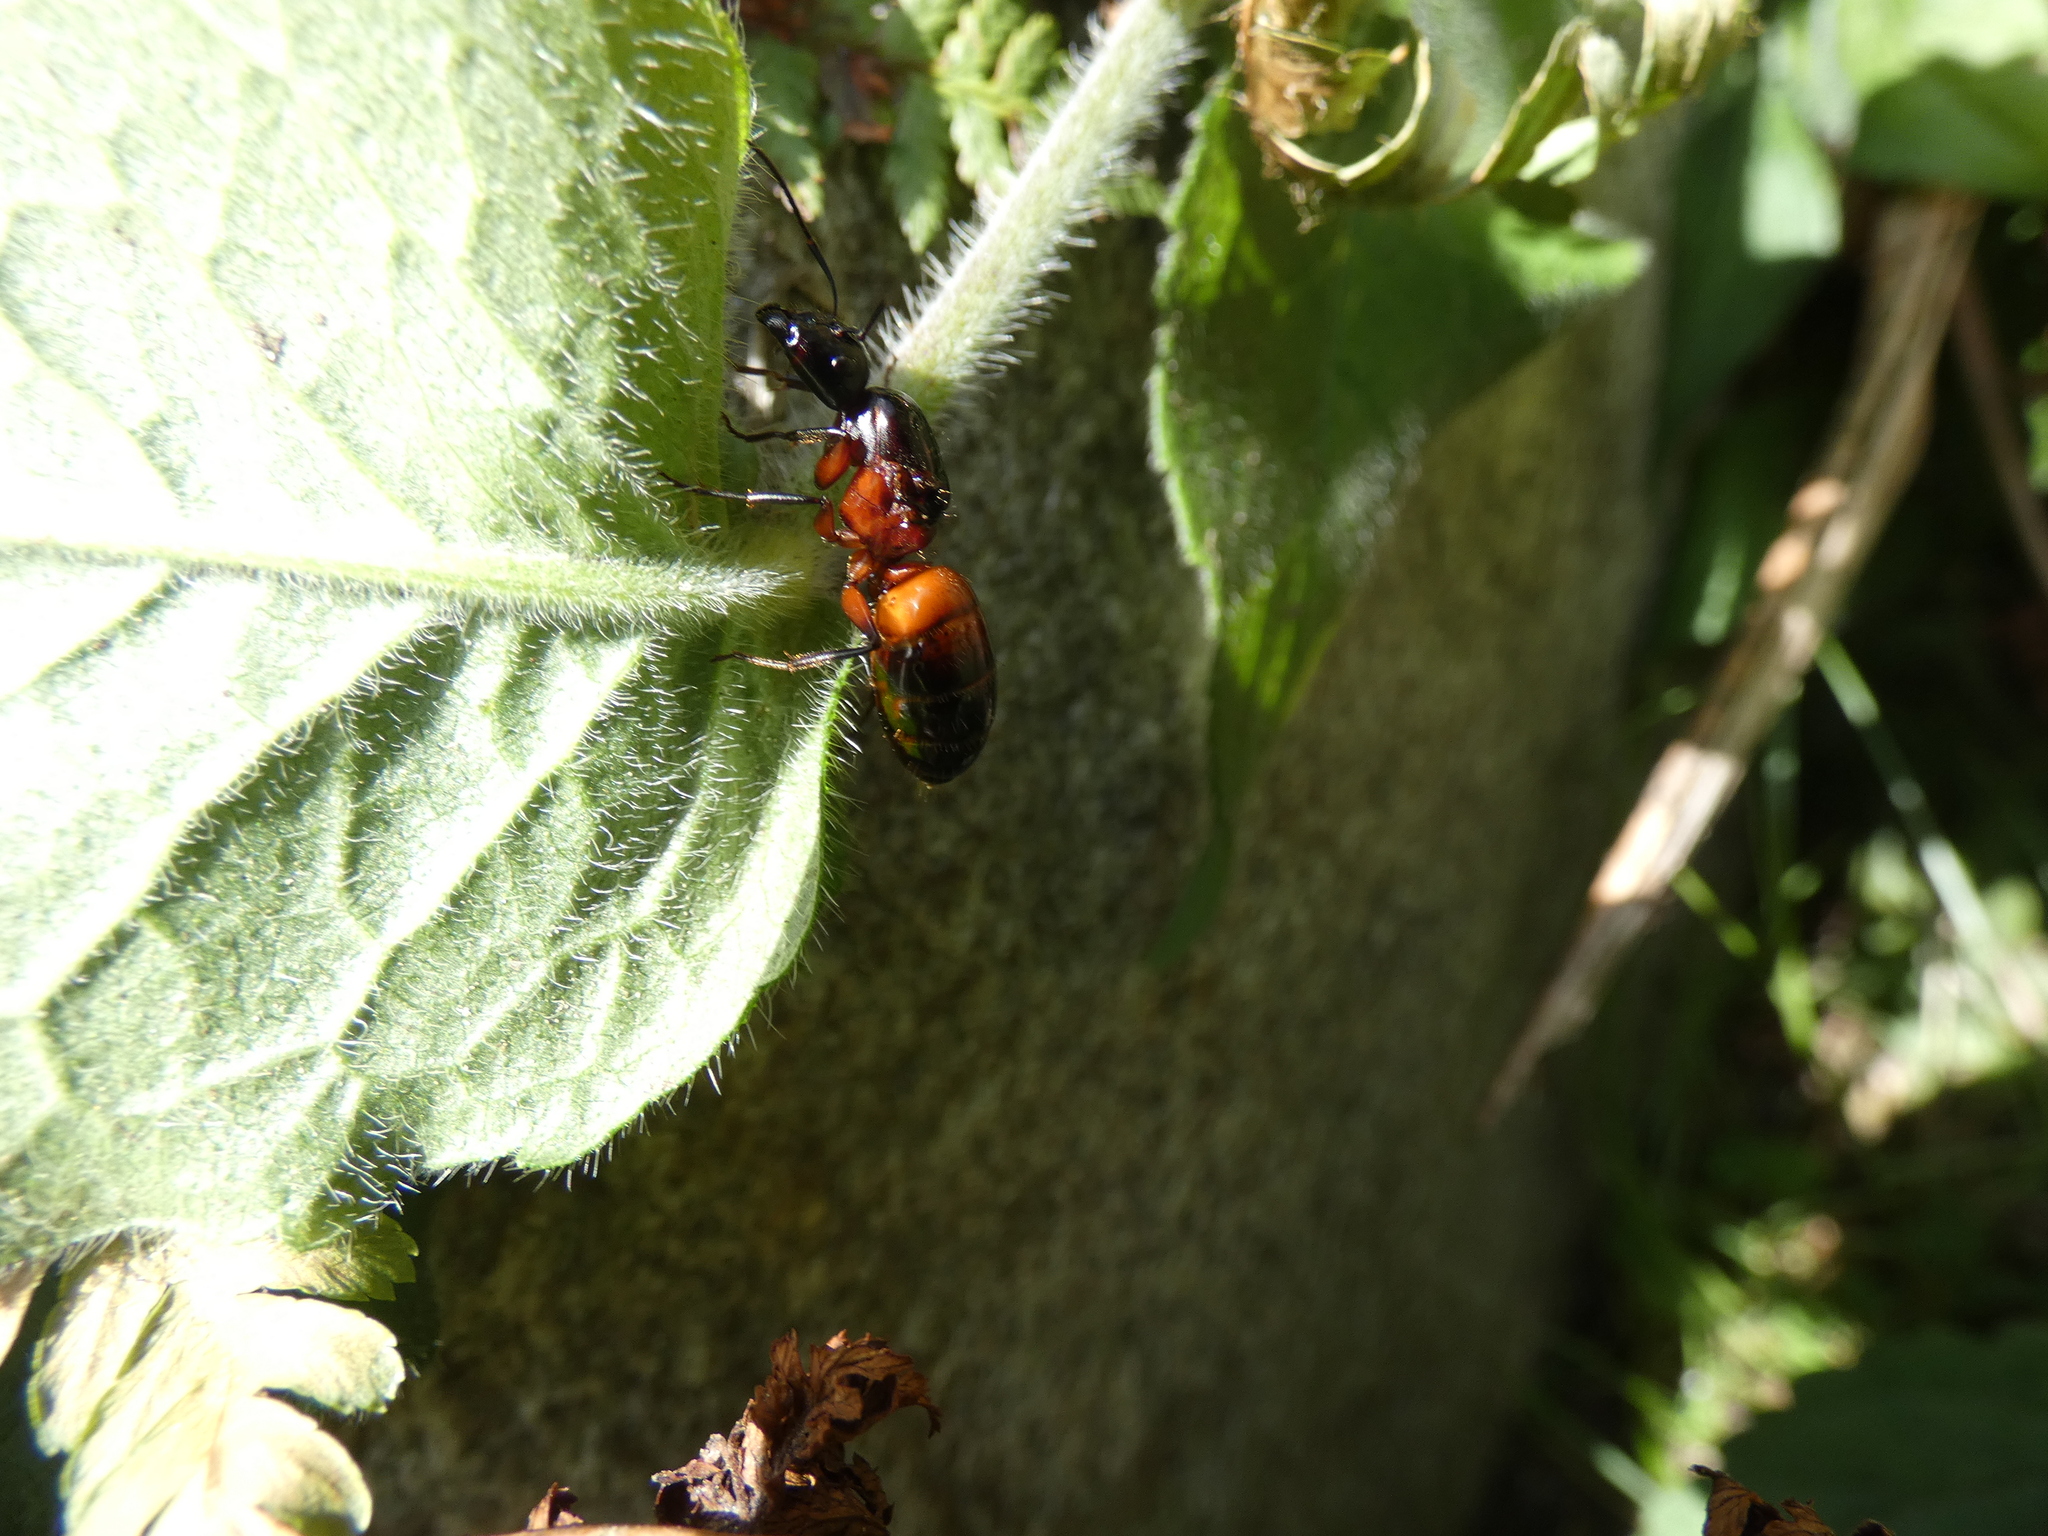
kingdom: Animalia
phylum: Arthropoda
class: Insecta
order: Hymenoptera
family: Formicidae
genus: Camponotus
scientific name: Camponotus ligniperdus
